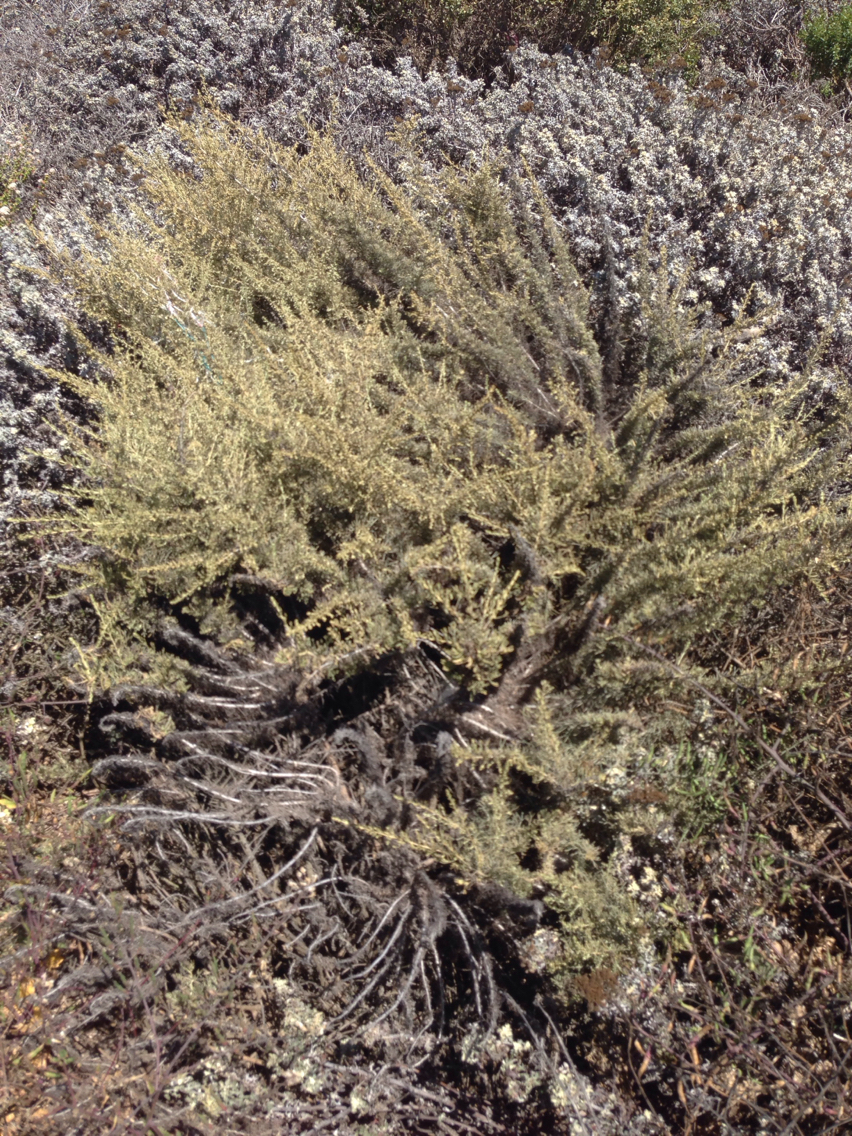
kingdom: Plantae
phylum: Tracheophyta
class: Magnoliopsida
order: Asterales
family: Asteraceae
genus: Artemisia
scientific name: Artemisia californica
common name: California sagebrush
